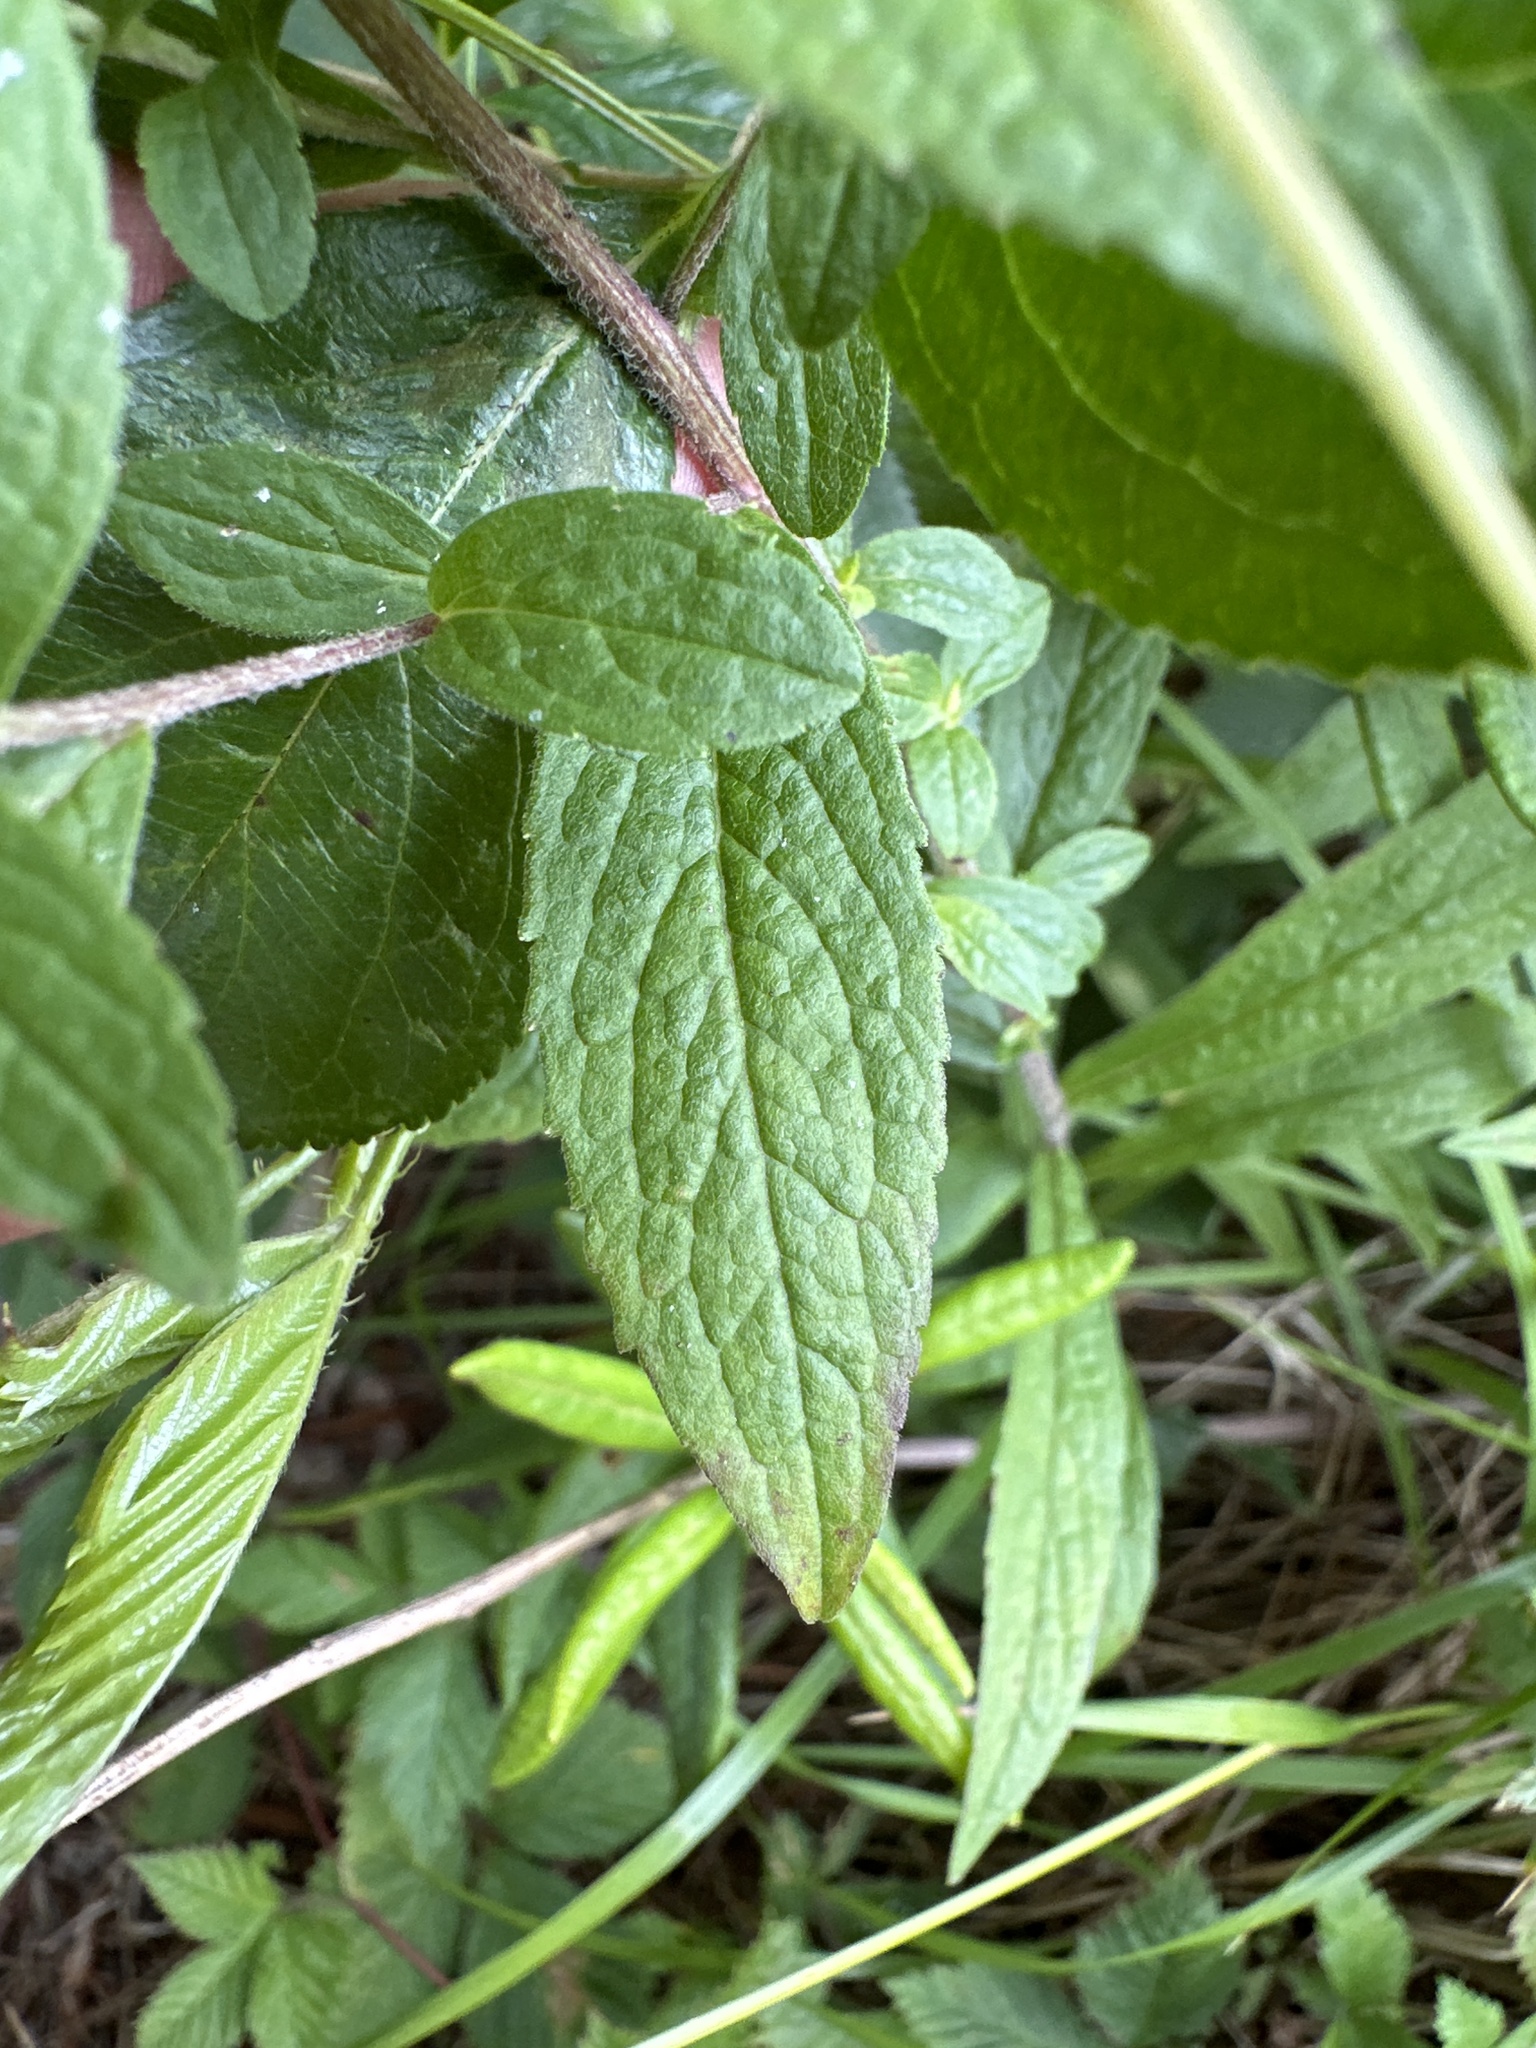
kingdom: Plantae
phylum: Tracheophyta
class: Magnoliopsida
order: Asterales
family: Asteraceae
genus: Solidago
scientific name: Solidago rugosa
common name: Rough-stemmed goldenrod
